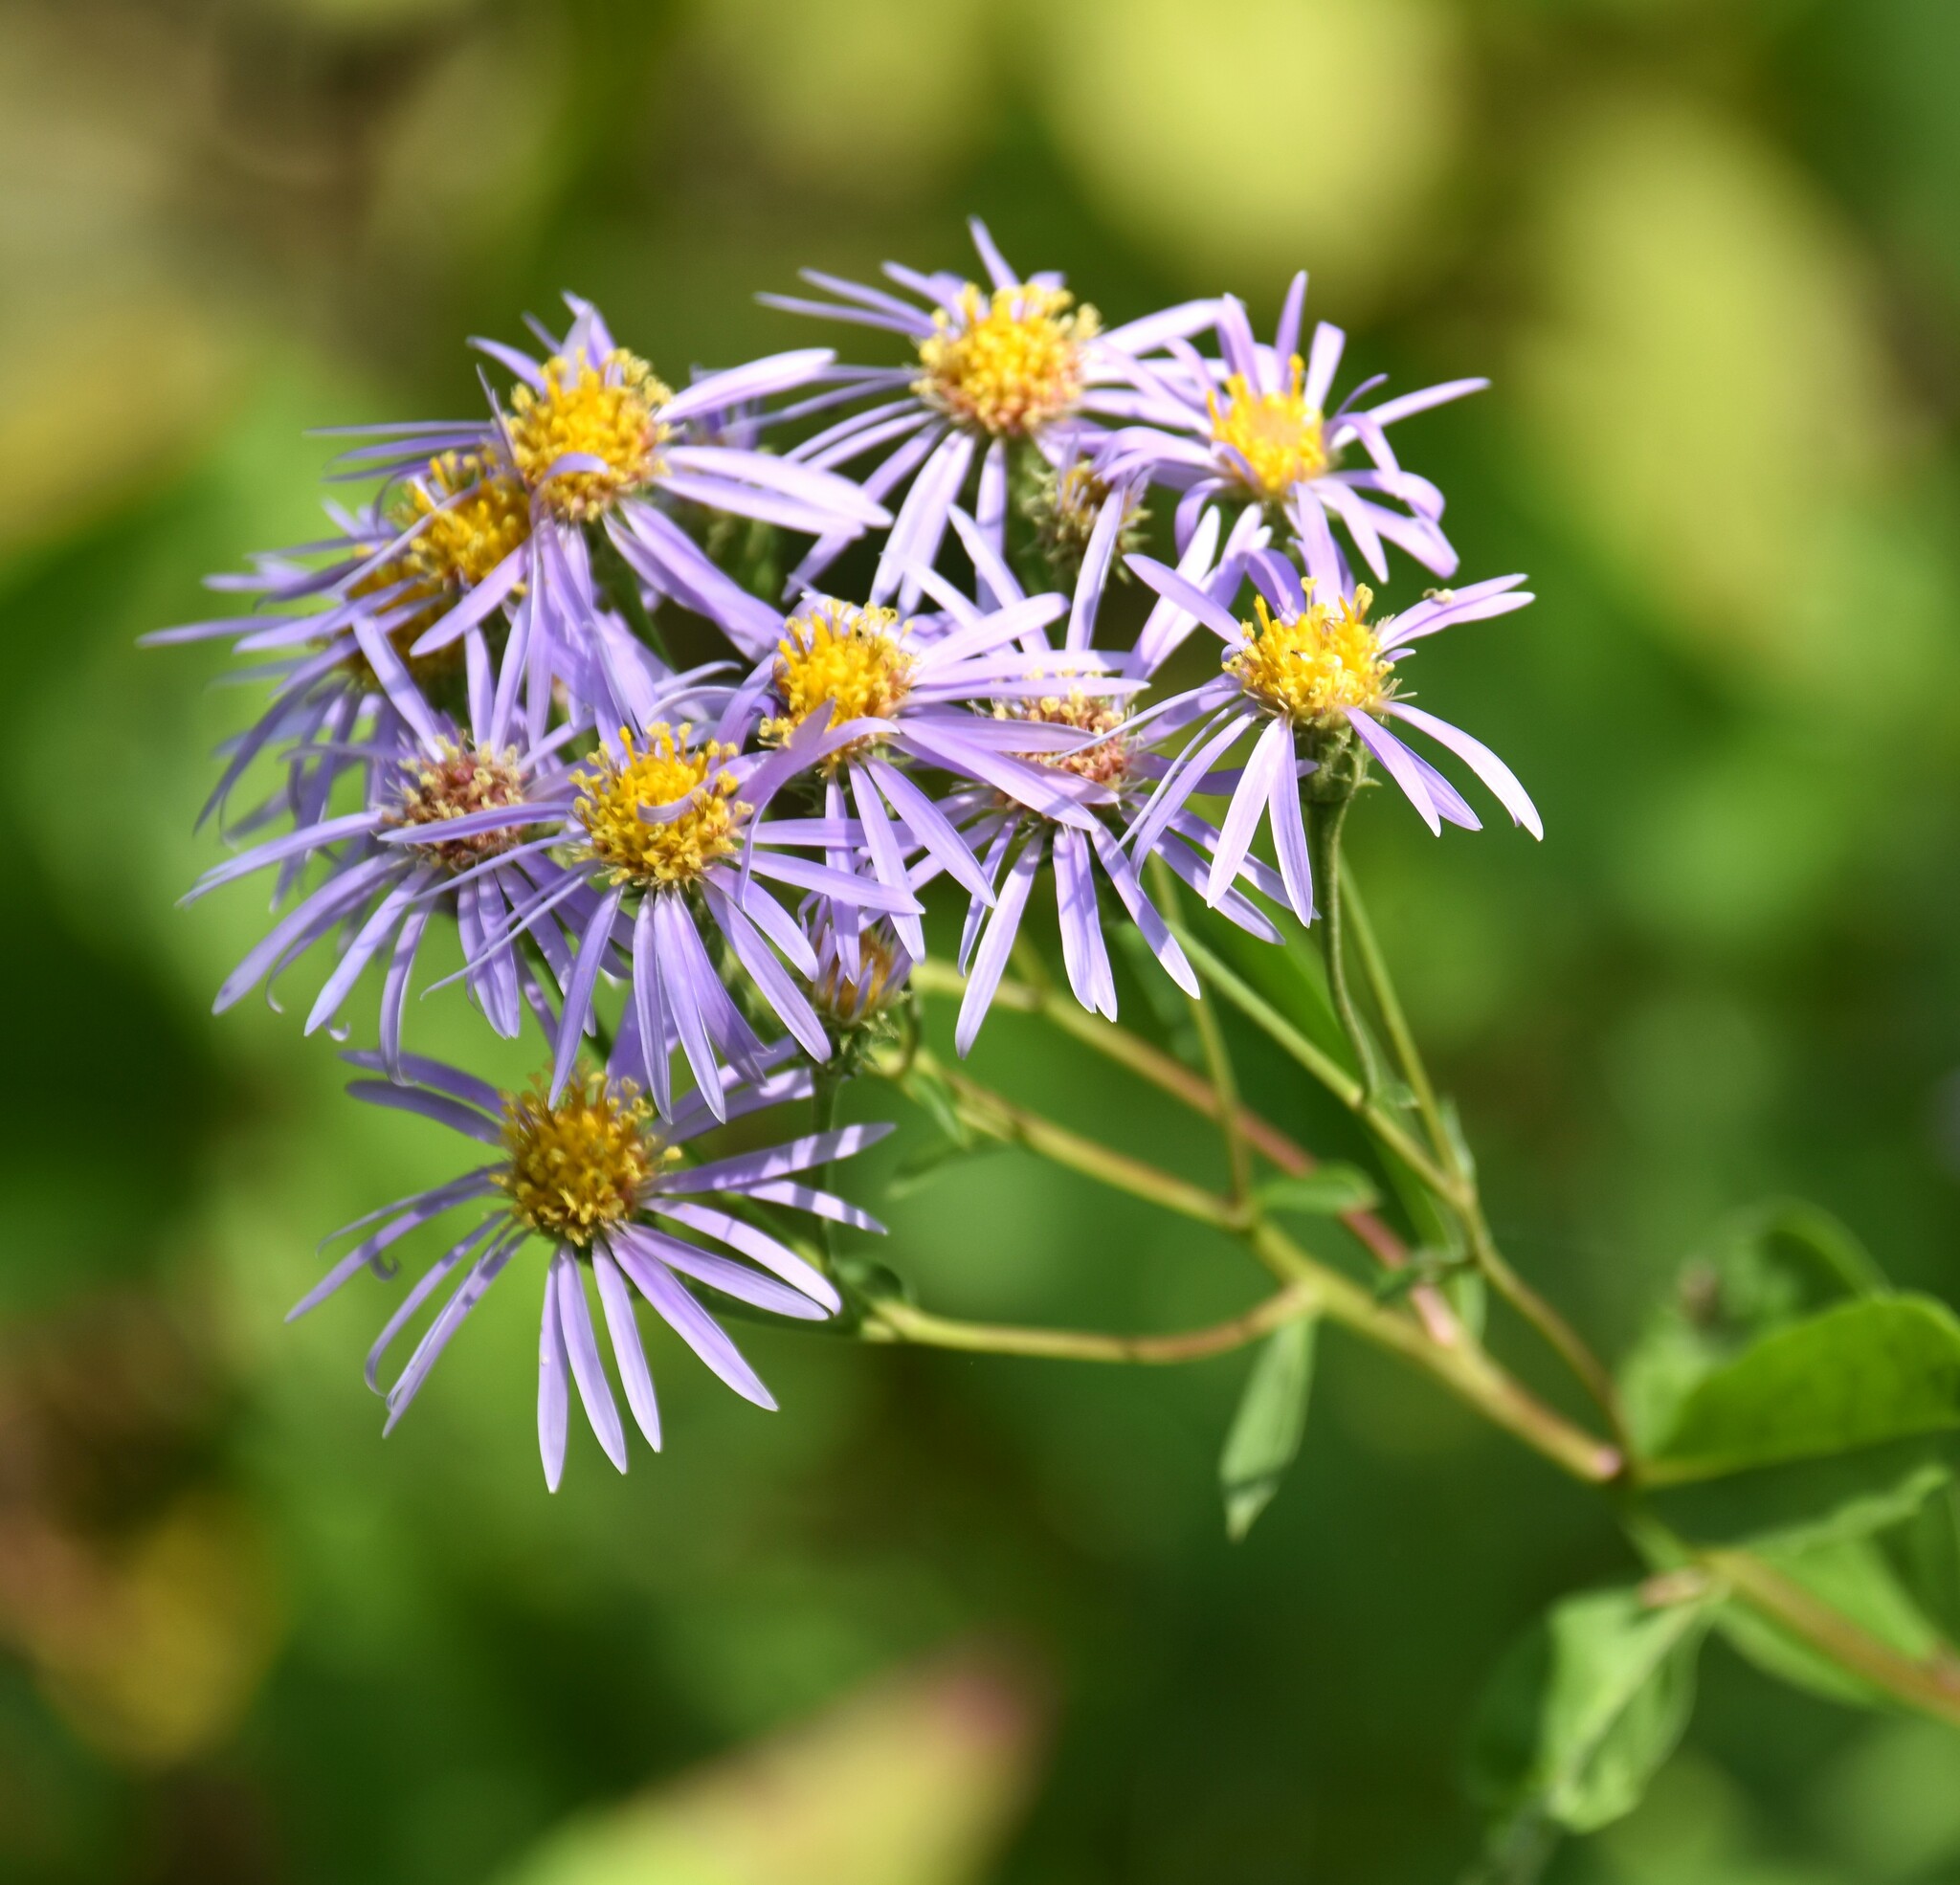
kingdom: Plantae
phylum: Tracheophyta
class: Magnoliopsida
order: Asterales
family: Asteraceae
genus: Eurybia
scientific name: Eurybia conspicua
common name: Showy aster
